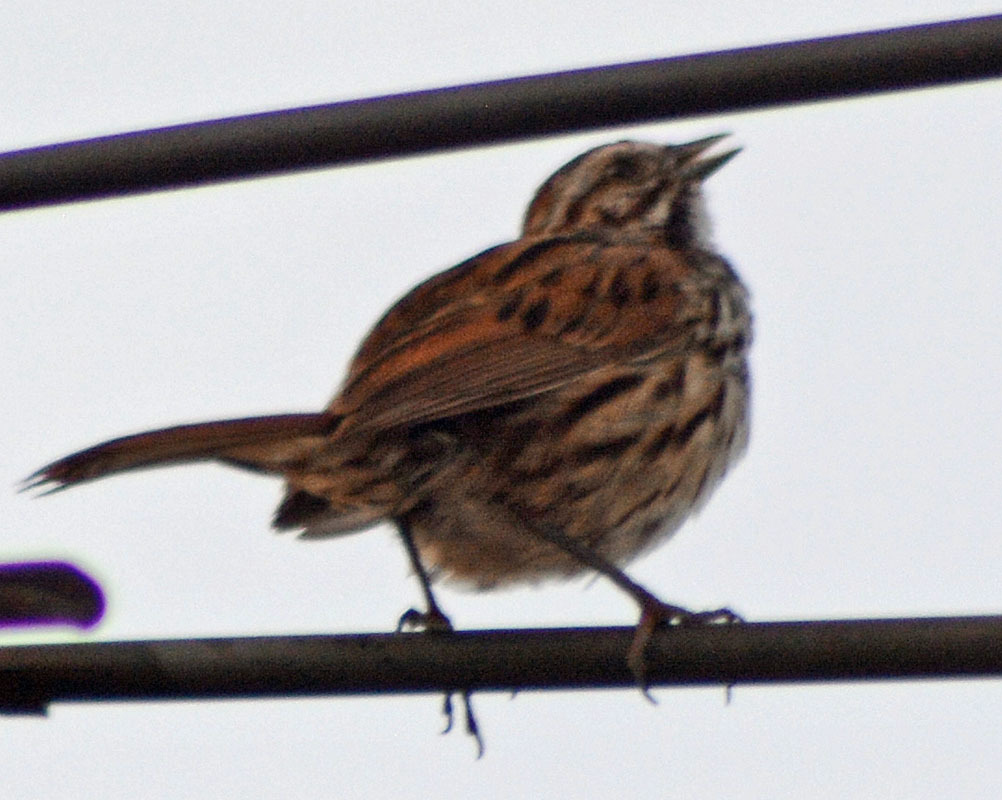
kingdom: Animalia
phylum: Chordata
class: Aves
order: Passeriformes
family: Passerellidae
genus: Melospiza
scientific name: Melospiza melodia
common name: Song sparrow
